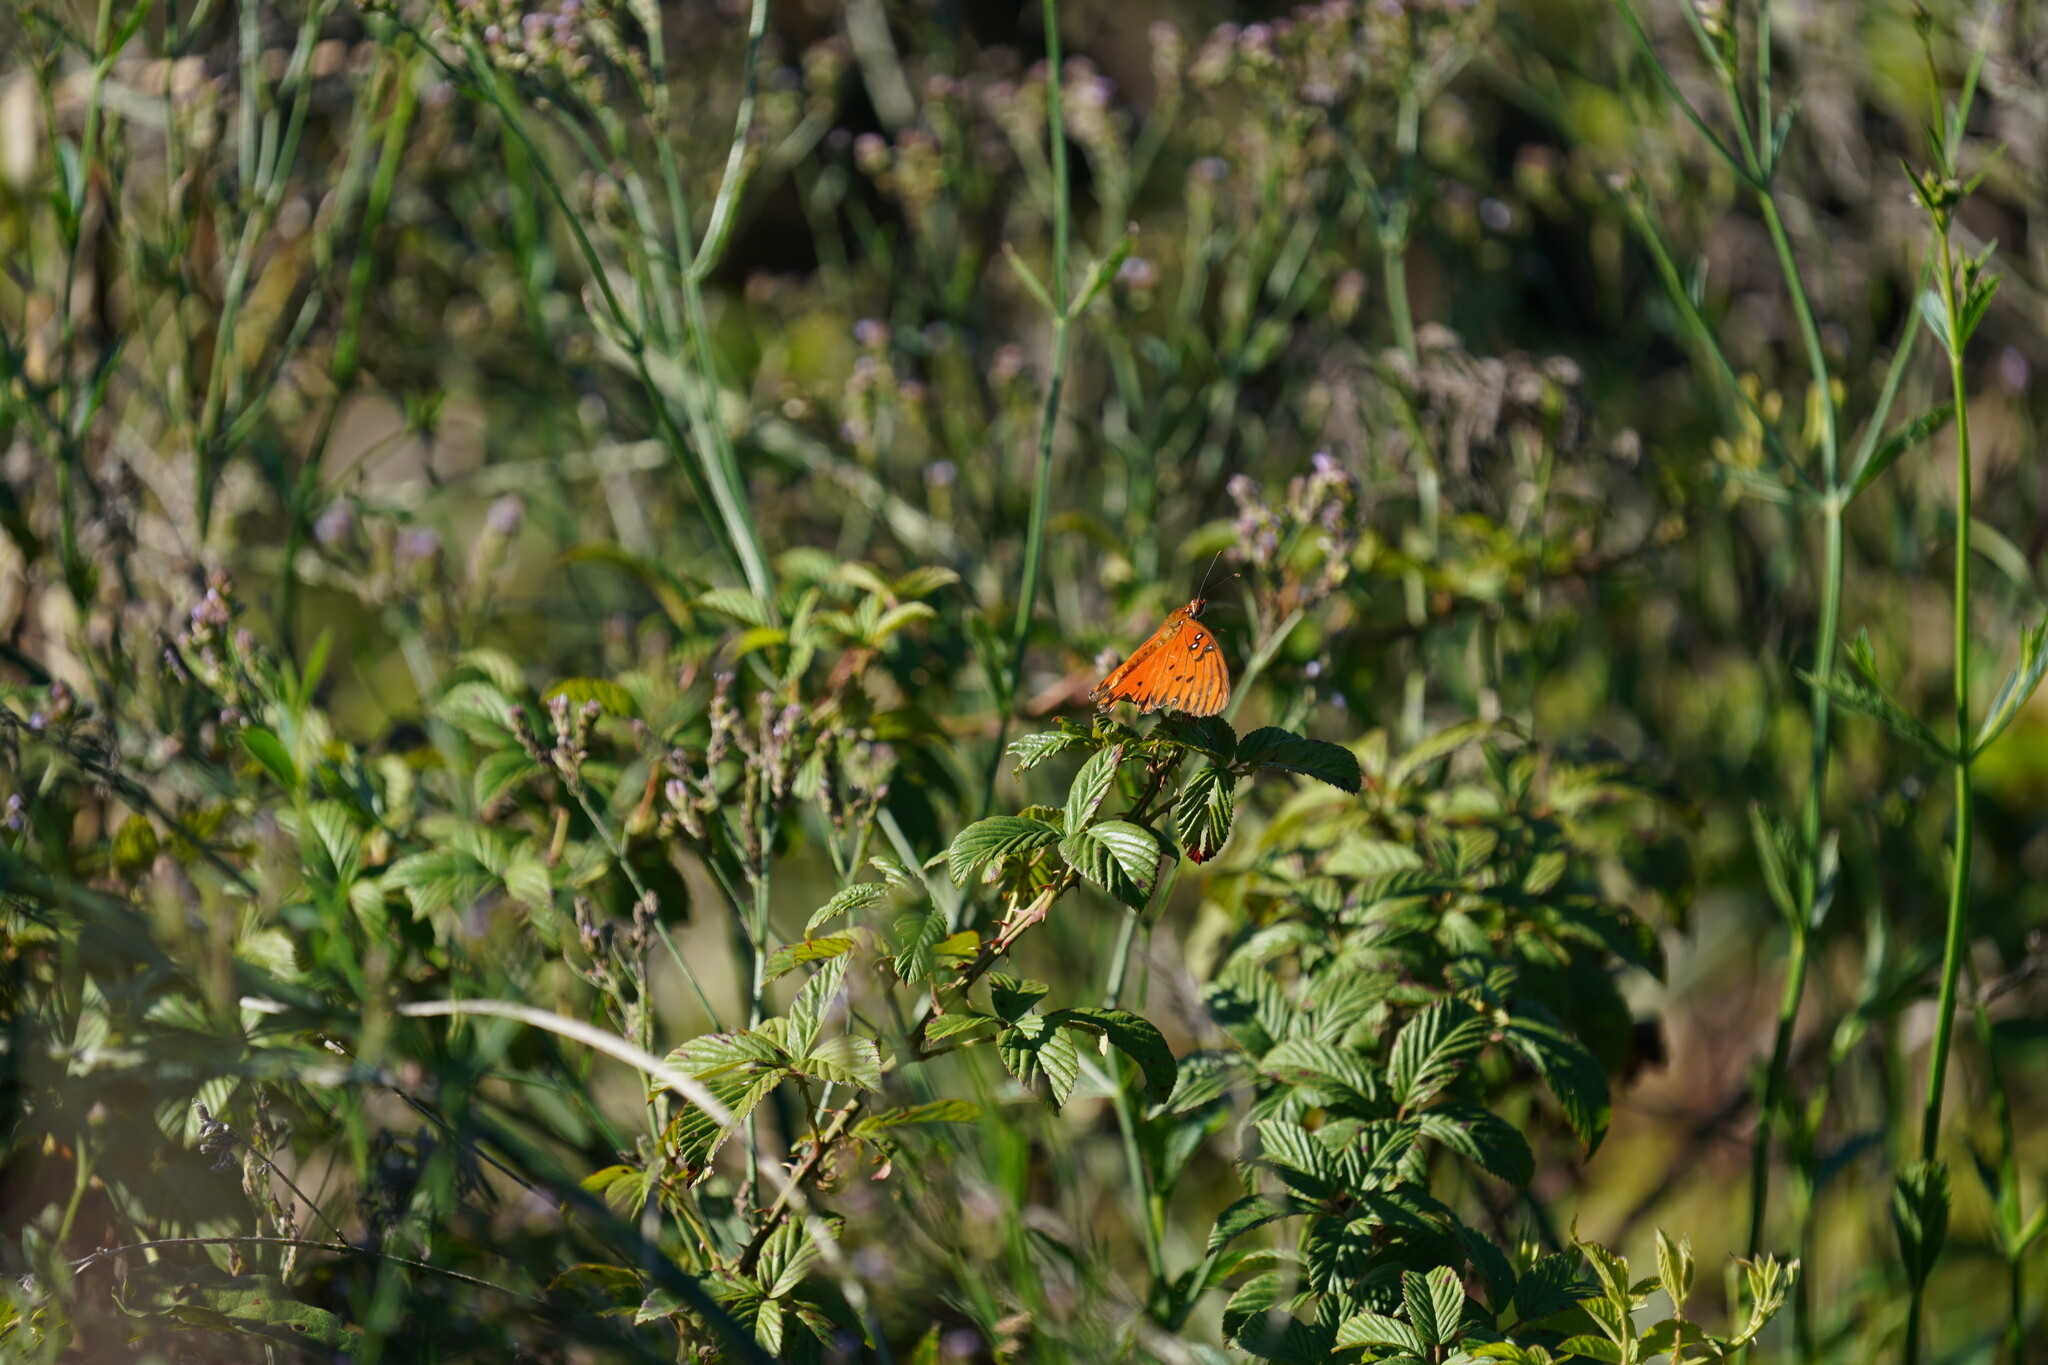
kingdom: Animalia
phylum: Arthropoda
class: Insecta
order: Lepidoptera
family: Nymphalidae
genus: Dione
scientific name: Dione vanillae
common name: Gulf fritillary
